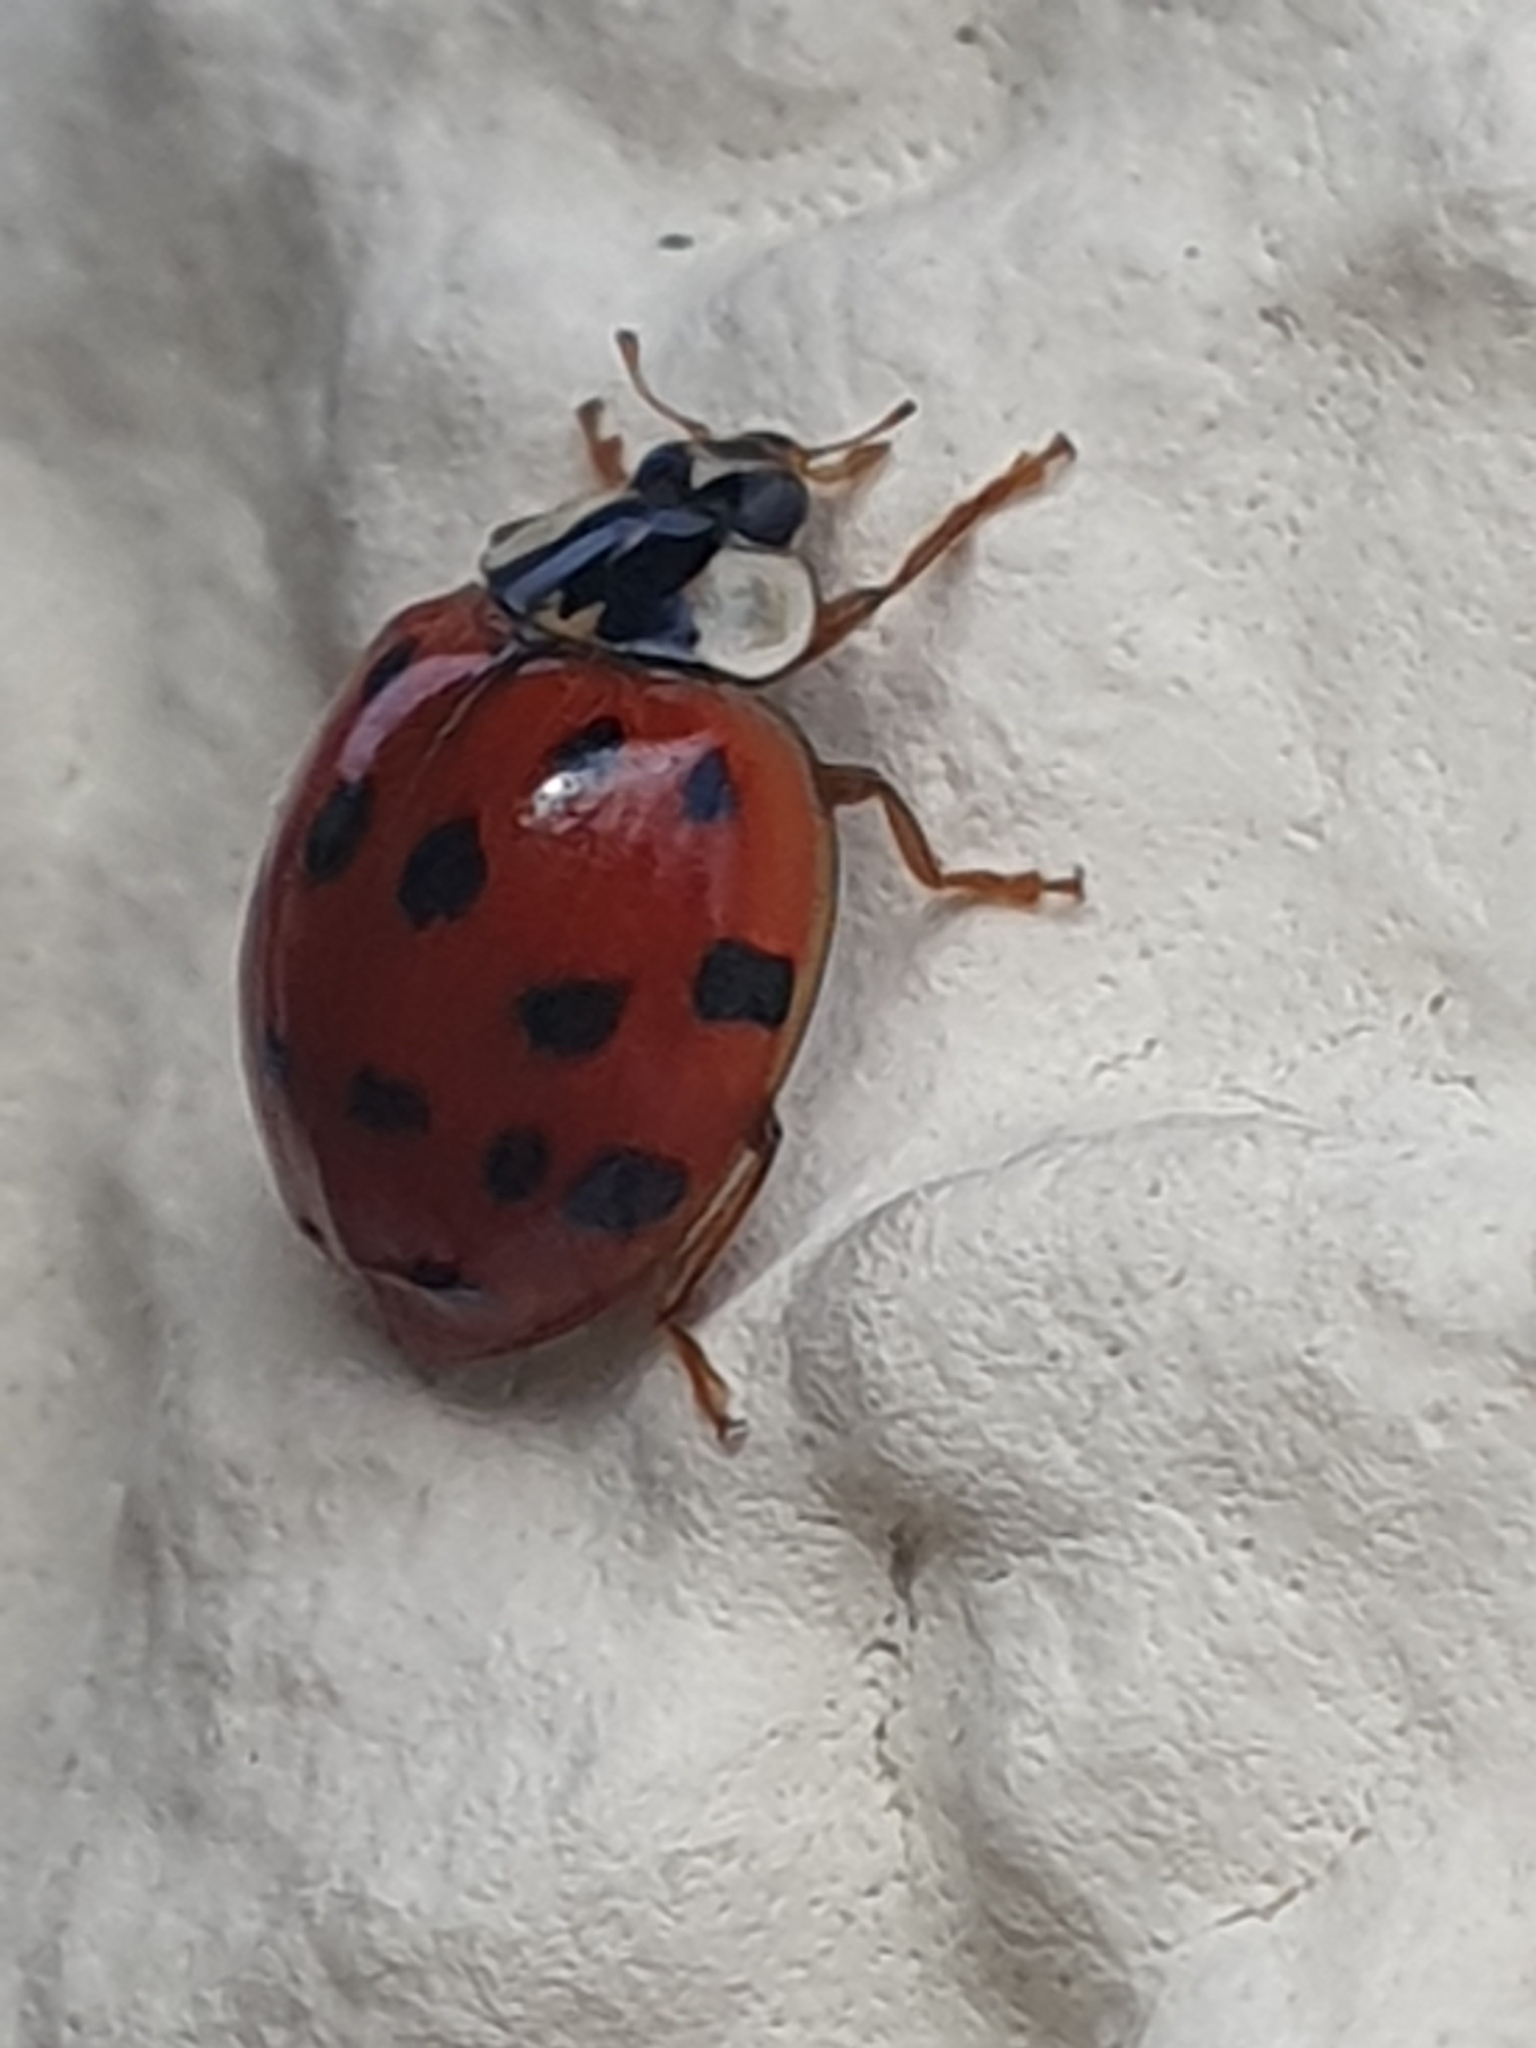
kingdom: Animalia
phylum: Arthropoda
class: Insecta
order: Coleoptera
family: Coccinellidae
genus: Harmonia
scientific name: Harmonia axyridis
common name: Harlequin ladybird
